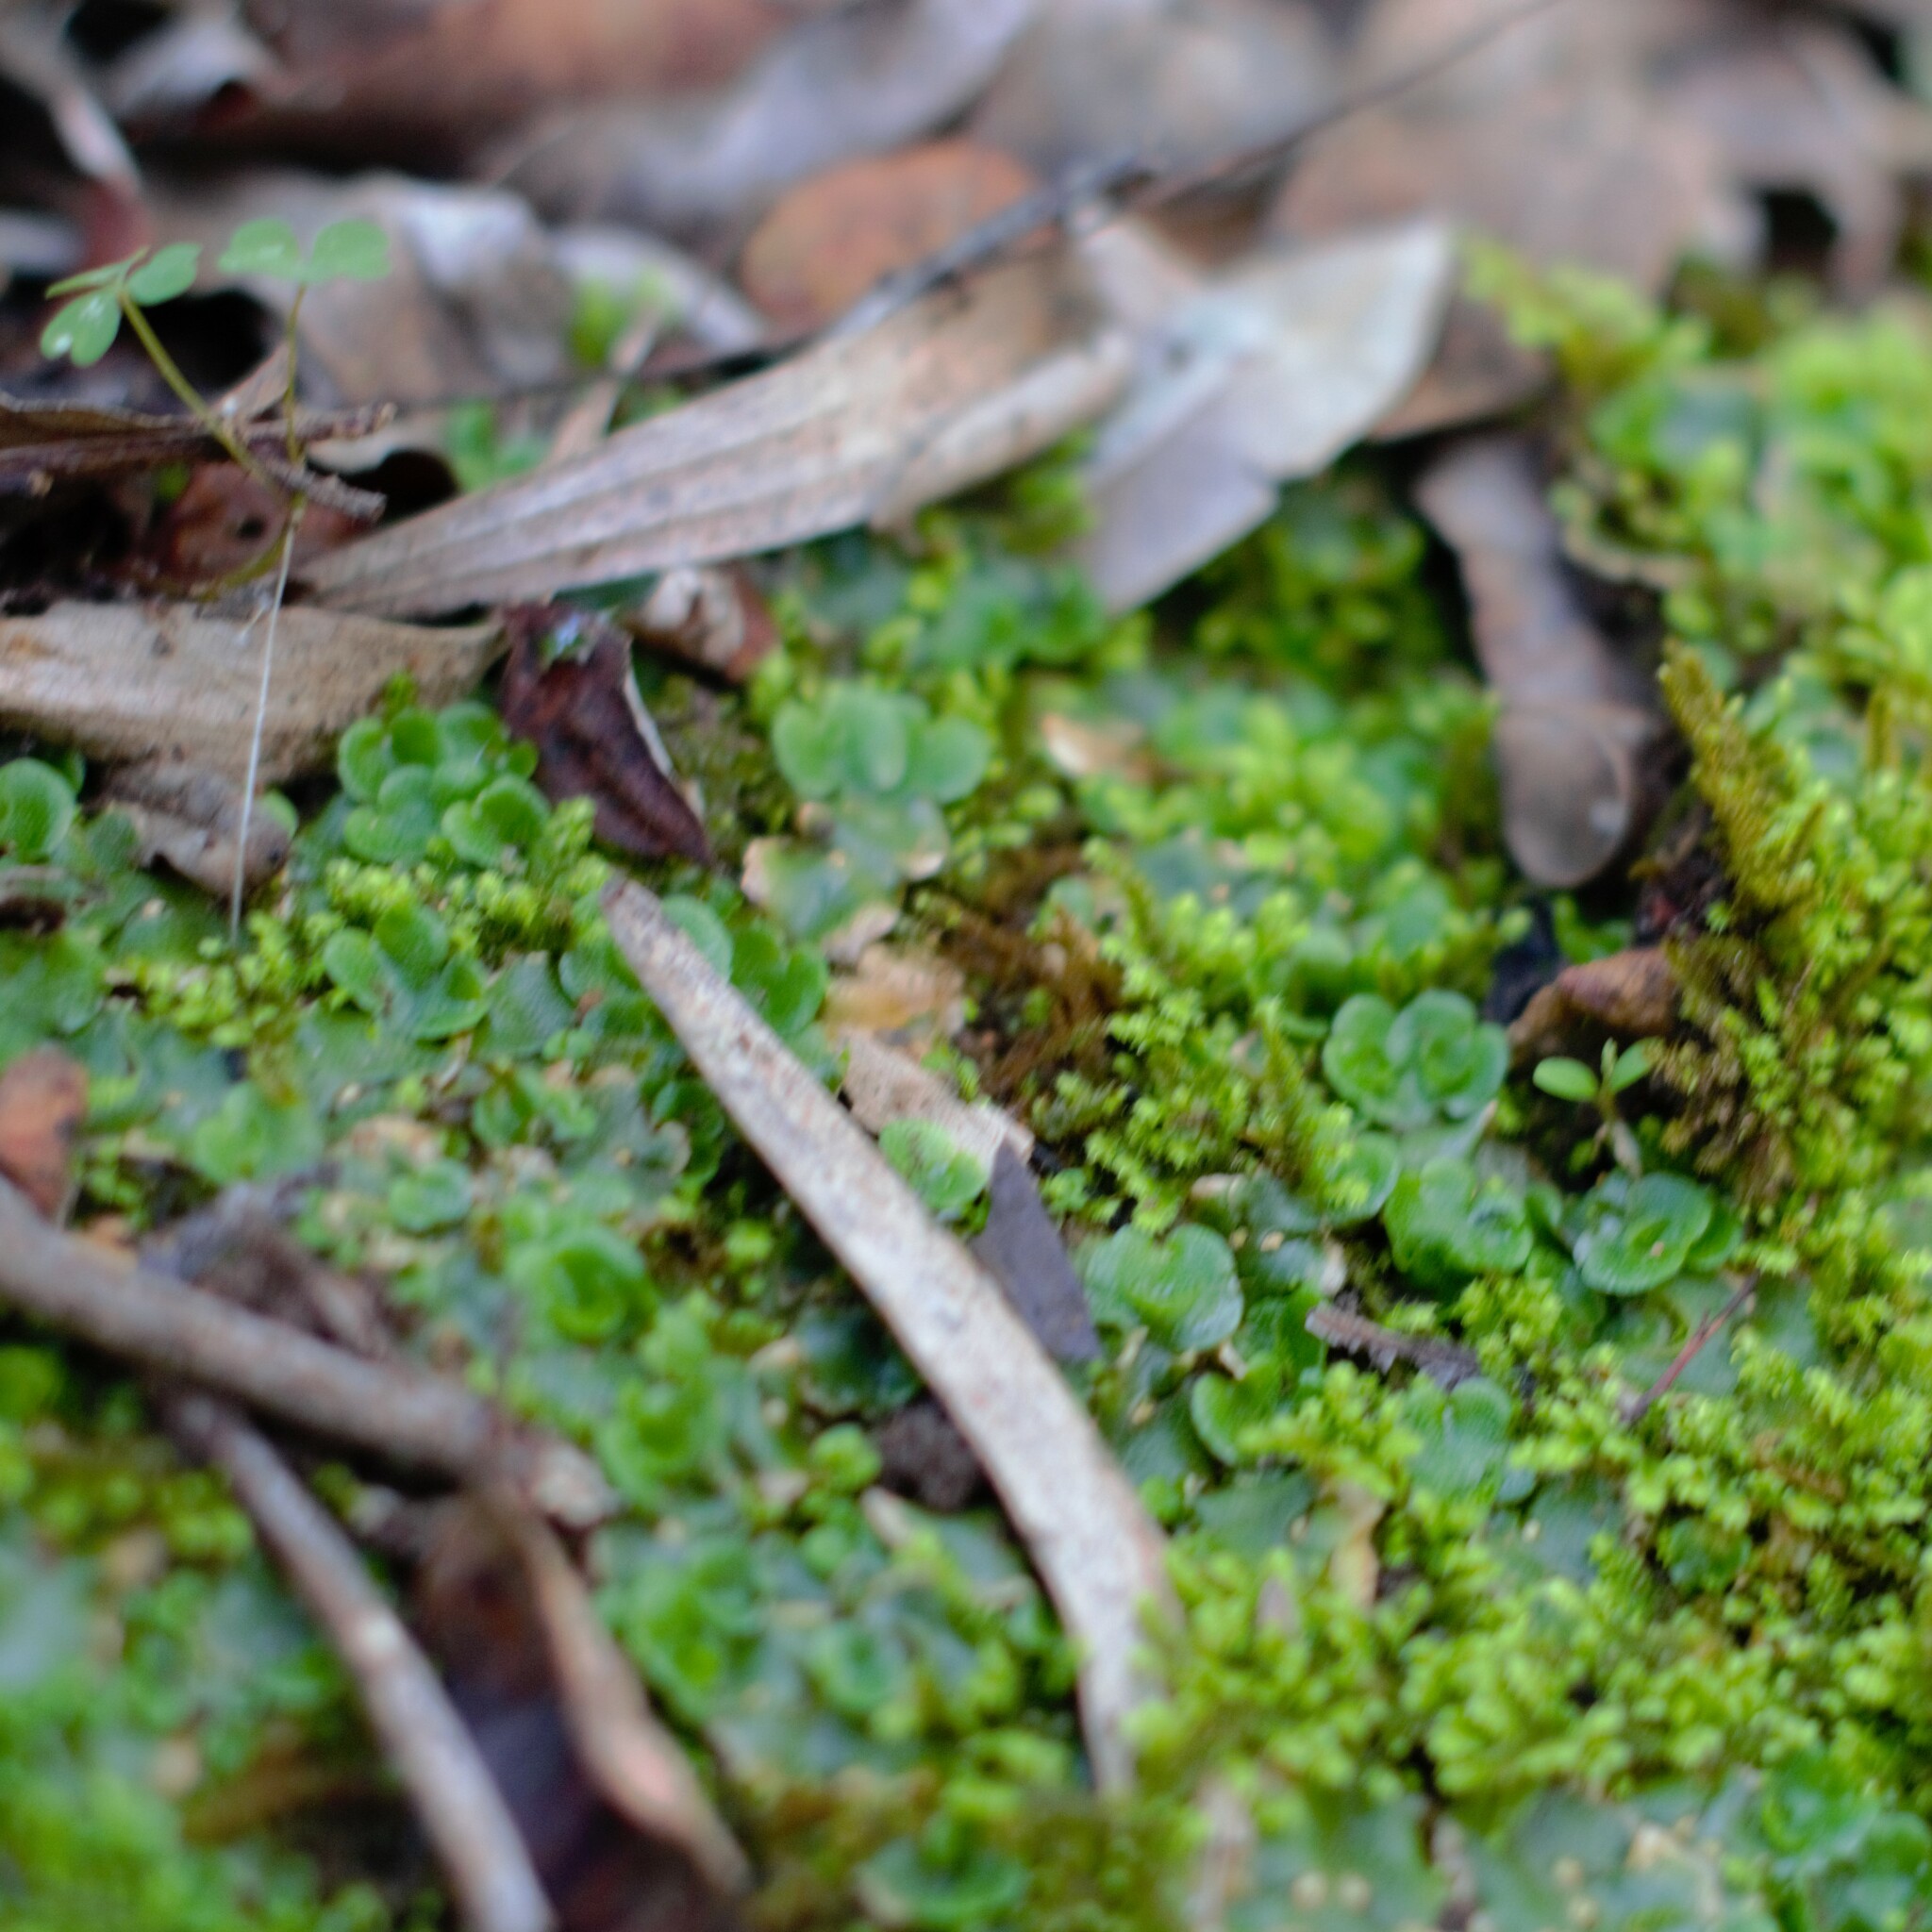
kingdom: Plantae
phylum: Marchantiophyta
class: Marchantiopsida
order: Lunulariales
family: Lunulariaceae
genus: Lunularia
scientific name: Lunularia cruciata
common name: Crescent-cup liverwort
